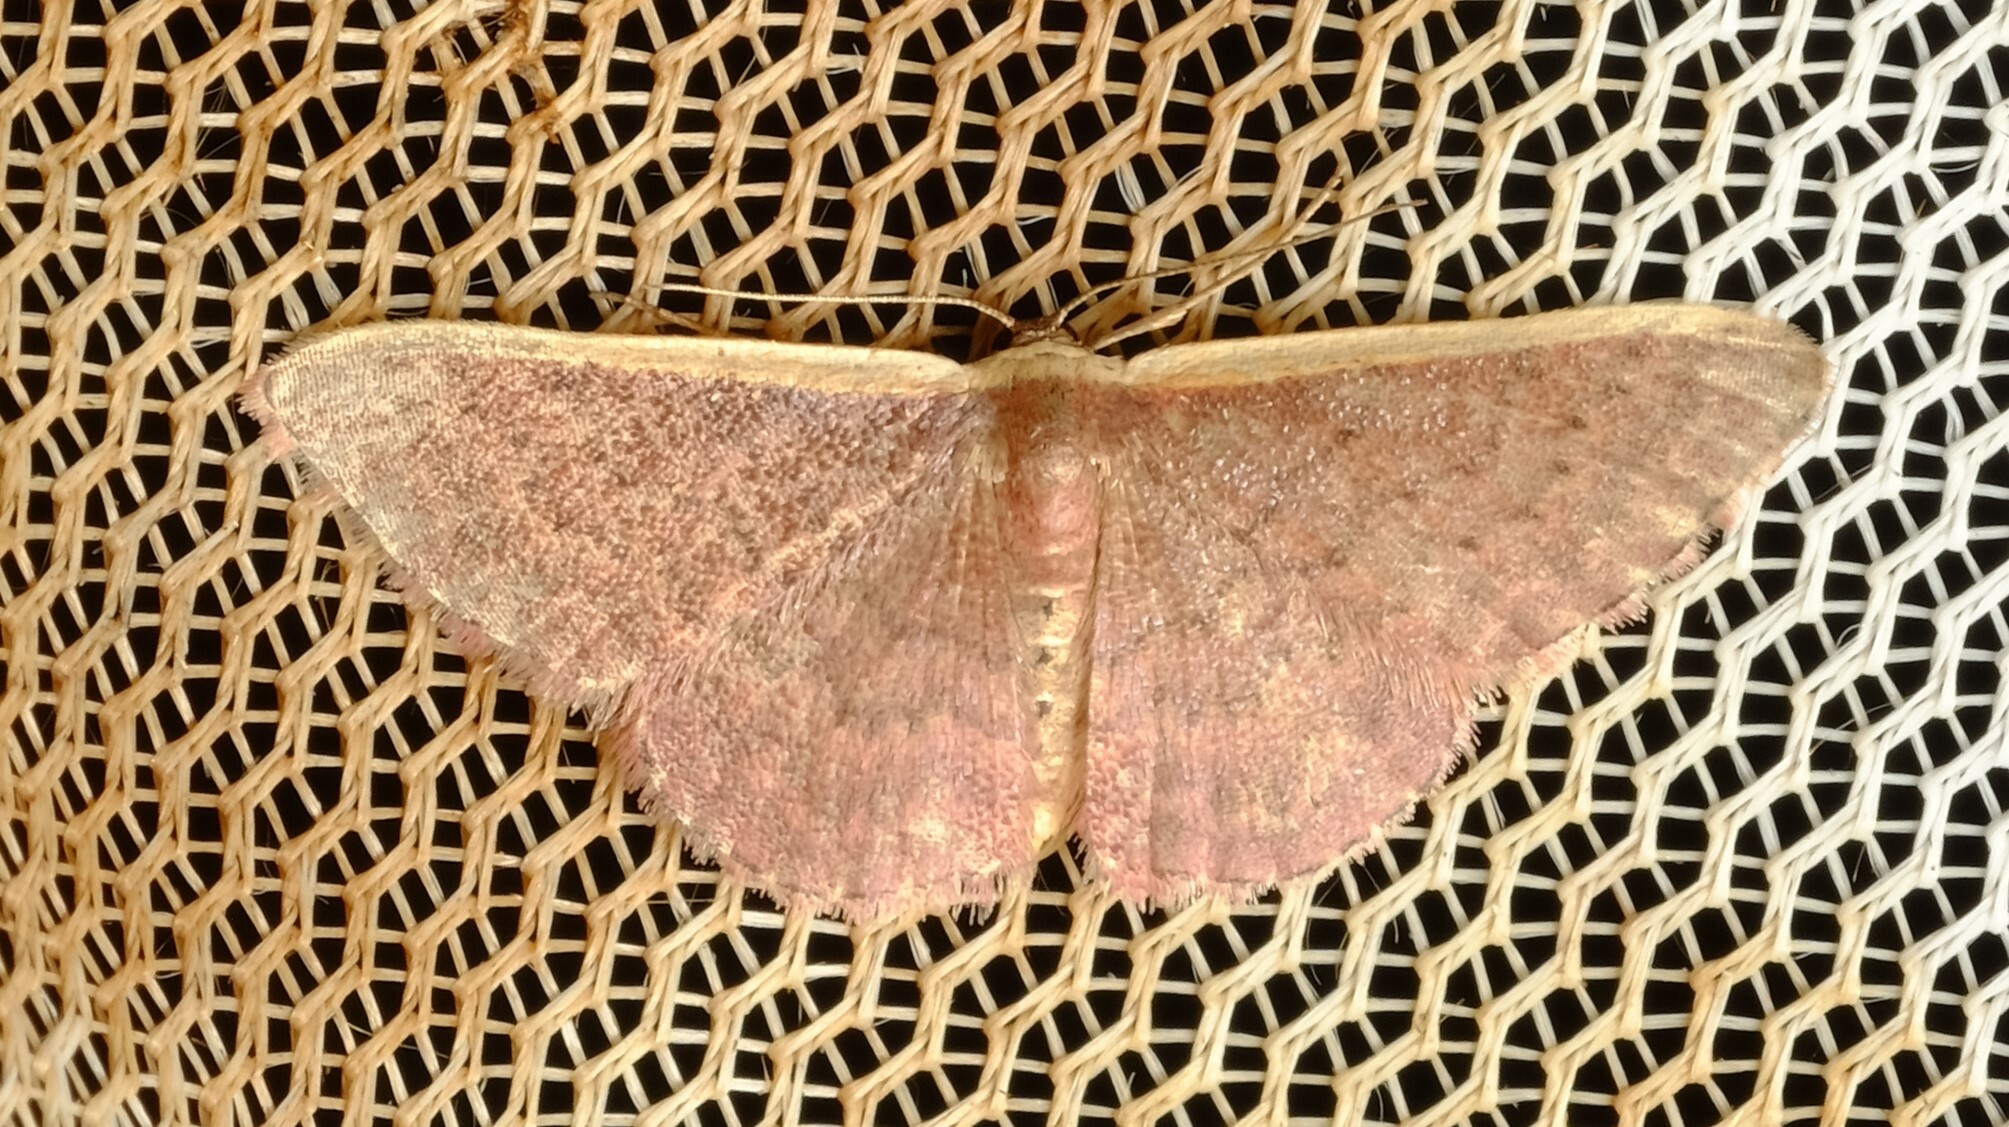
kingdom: Animalia
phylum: Arthropoda
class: Insecta
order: Lepidoptera
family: Geometridae
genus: Idaea
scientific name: Idaea inversata
